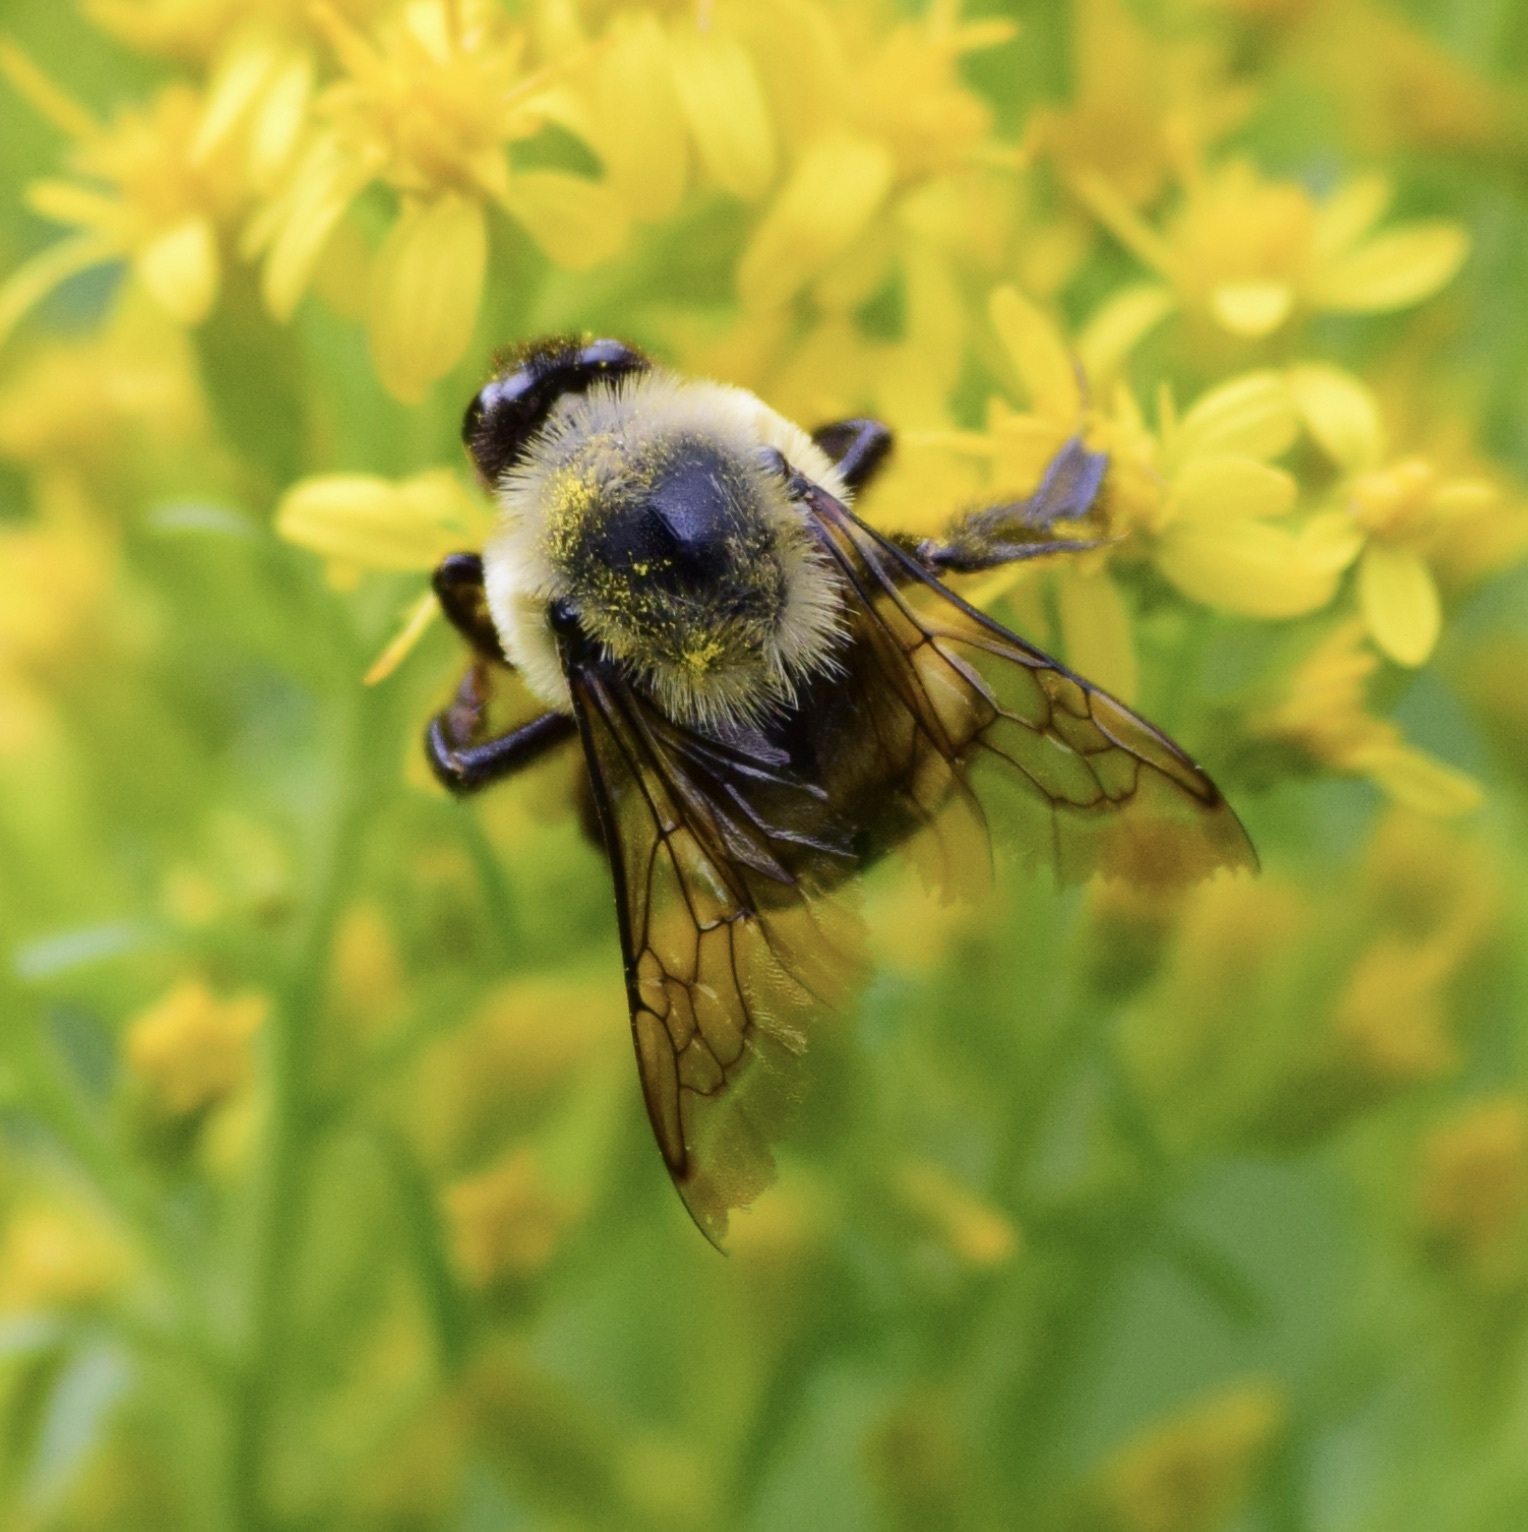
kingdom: Animalia
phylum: Arthropoda
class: Insecta
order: Hymenoptera
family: Apidae
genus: Bombus
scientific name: Bombus griseocollis
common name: Brown-belted bumble bee
